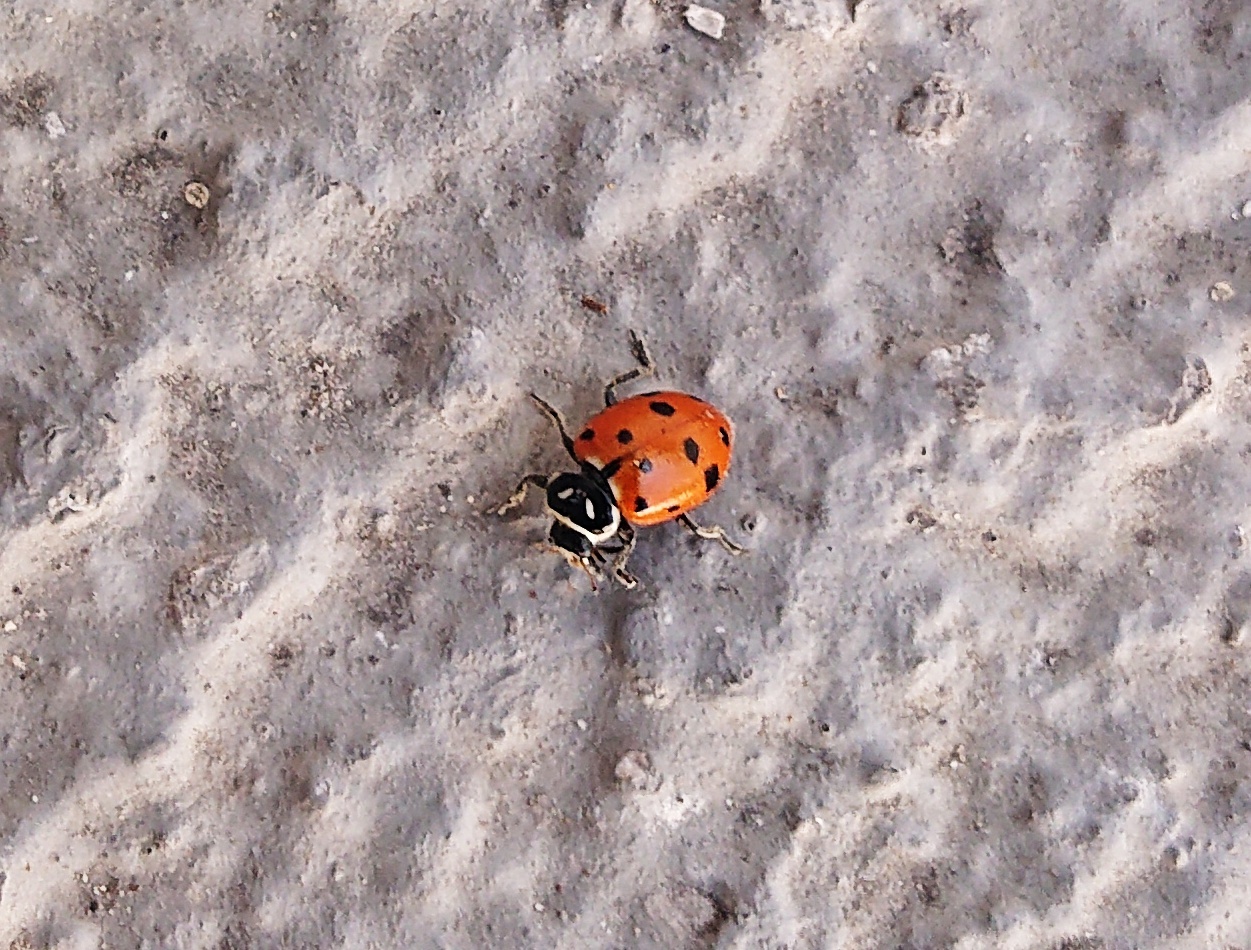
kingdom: Animalia
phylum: Arthropoda
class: Insecta
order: Coleoptera
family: Coccinellidae
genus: Hippodamia
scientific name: Hippodamia convergens
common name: Convergent lady beetle
